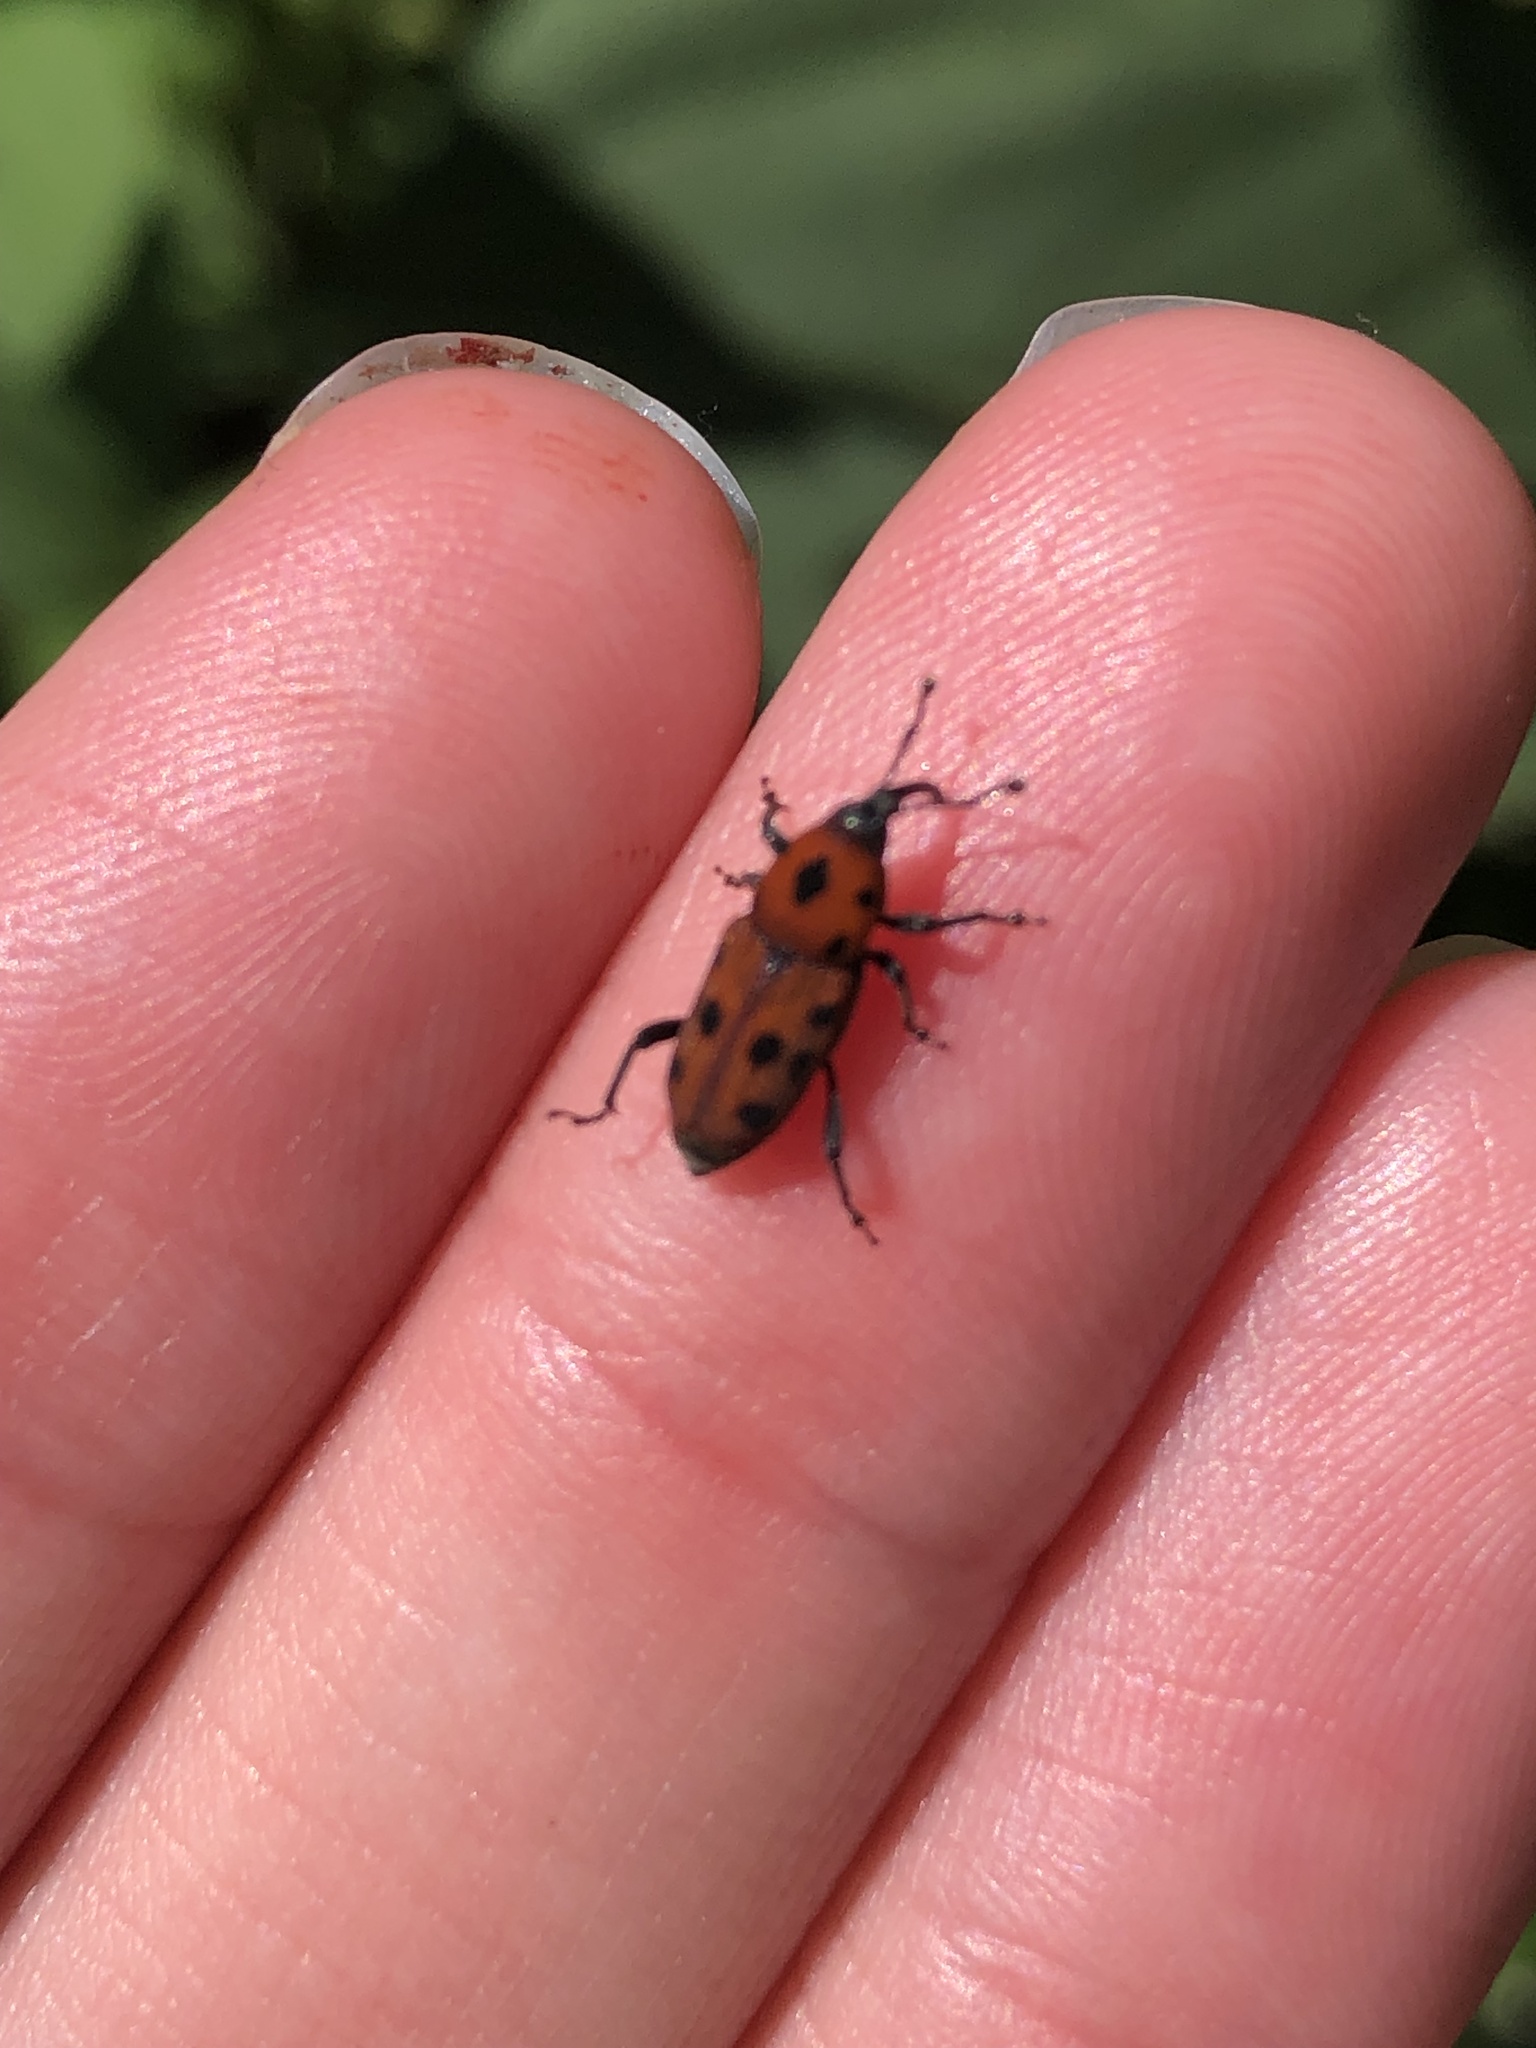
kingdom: Animalia
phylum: Arthropoda
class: Insecta
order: Coleoptera
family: Dryophthoridae
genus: Rhodobaenus
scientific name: Rhodobaenus tredecimpunctatus
